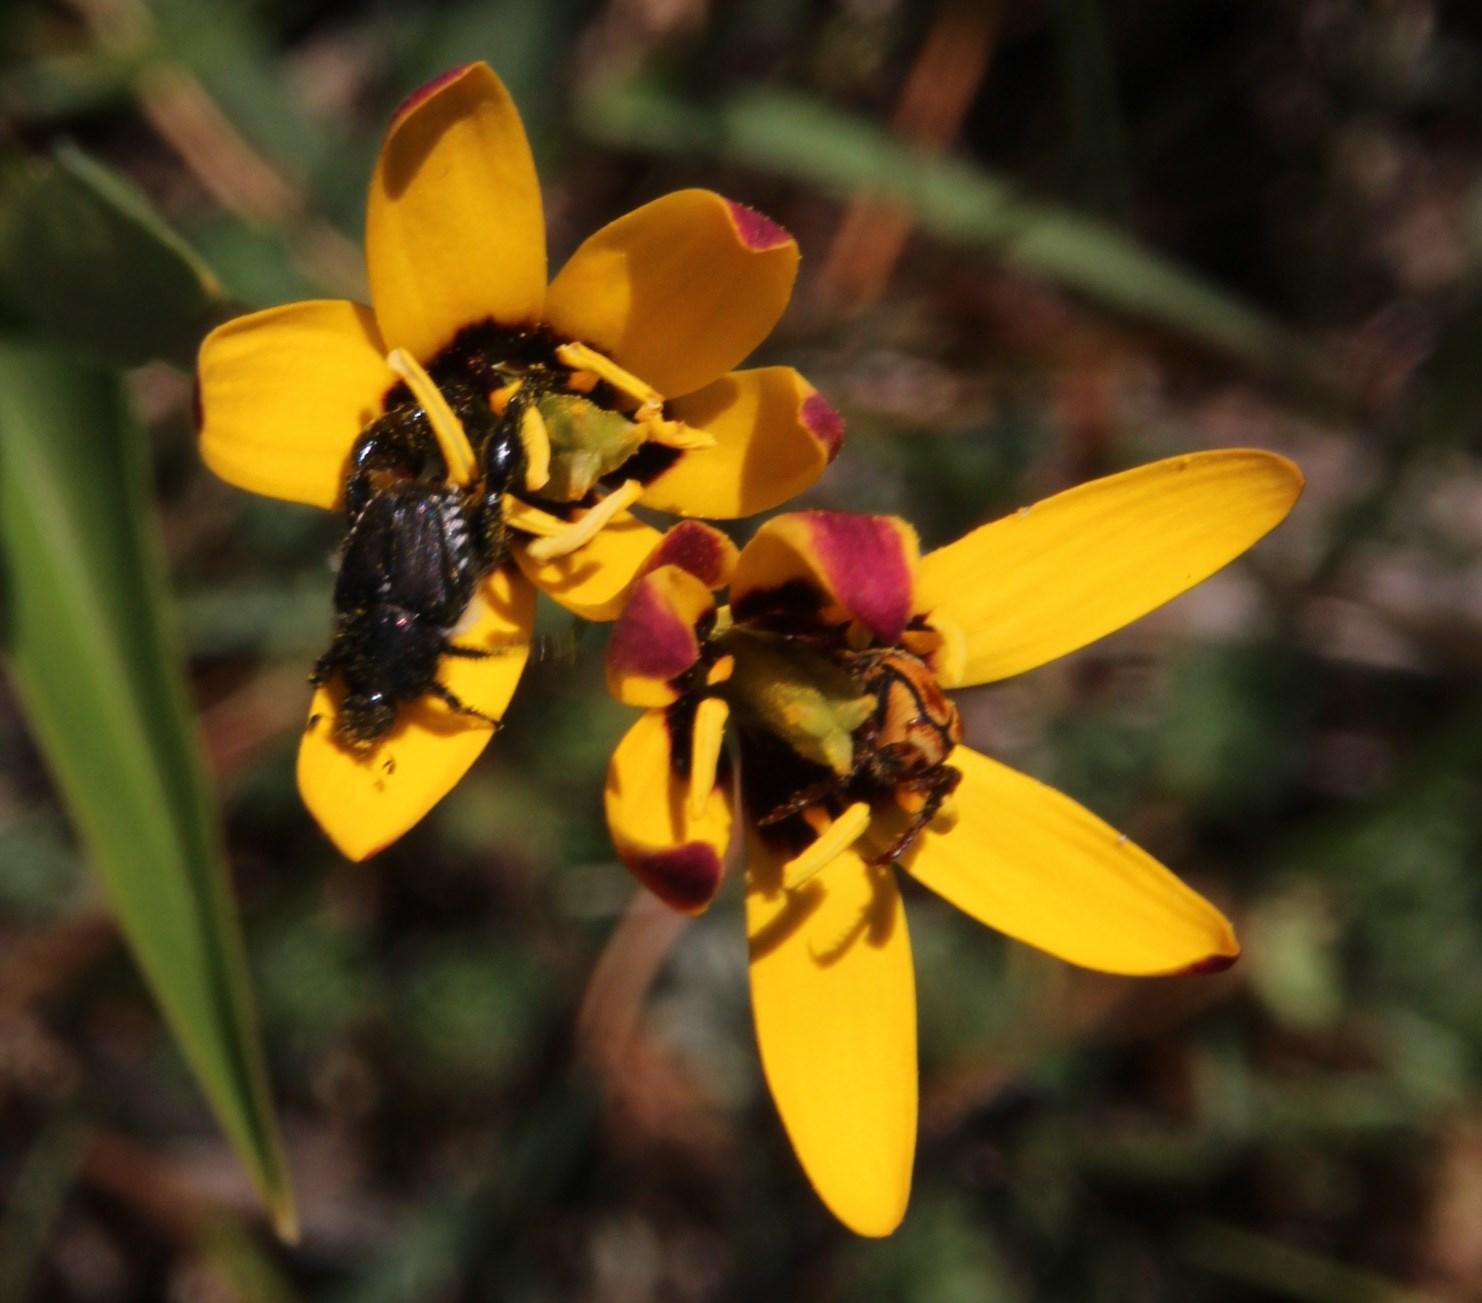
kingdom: Plantae
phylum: Tracheophyta
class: Liliopsida
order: Liliales
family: Colchicaceae
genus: Baeometra
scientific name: Baeometra uniflora
